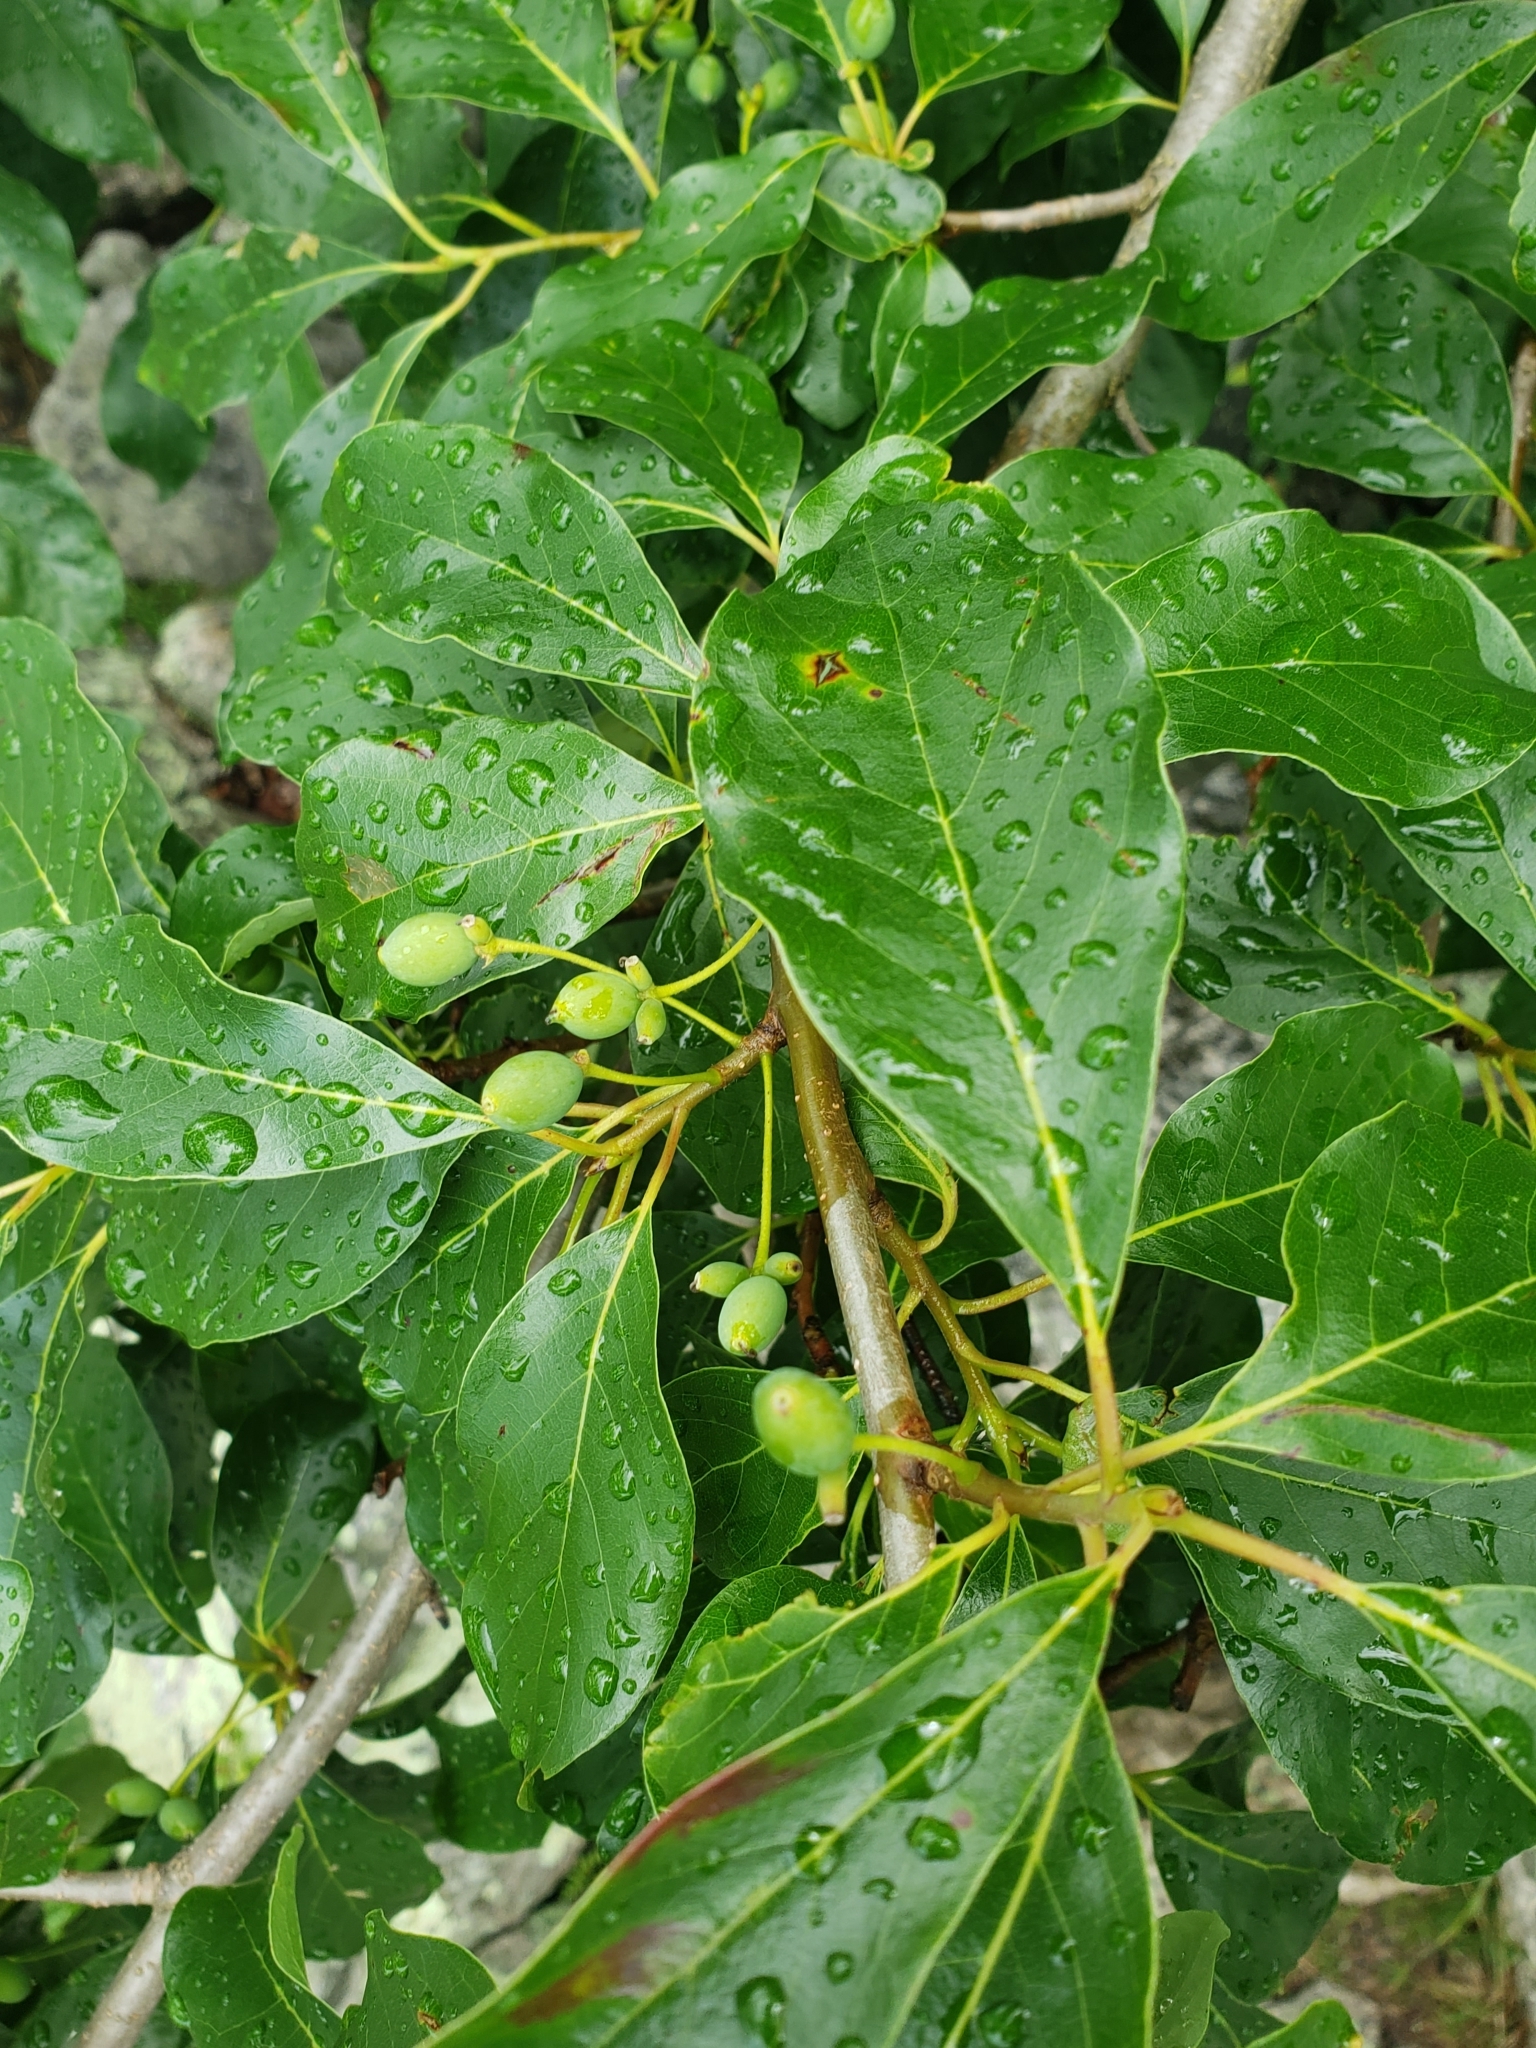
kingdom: Plantae
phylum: Tracheophyta
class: Magnoliopsida
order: Cornales
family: Nyssaceae
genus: Nyssa
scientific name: Nyssa sylvatica
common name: Black tupelo
